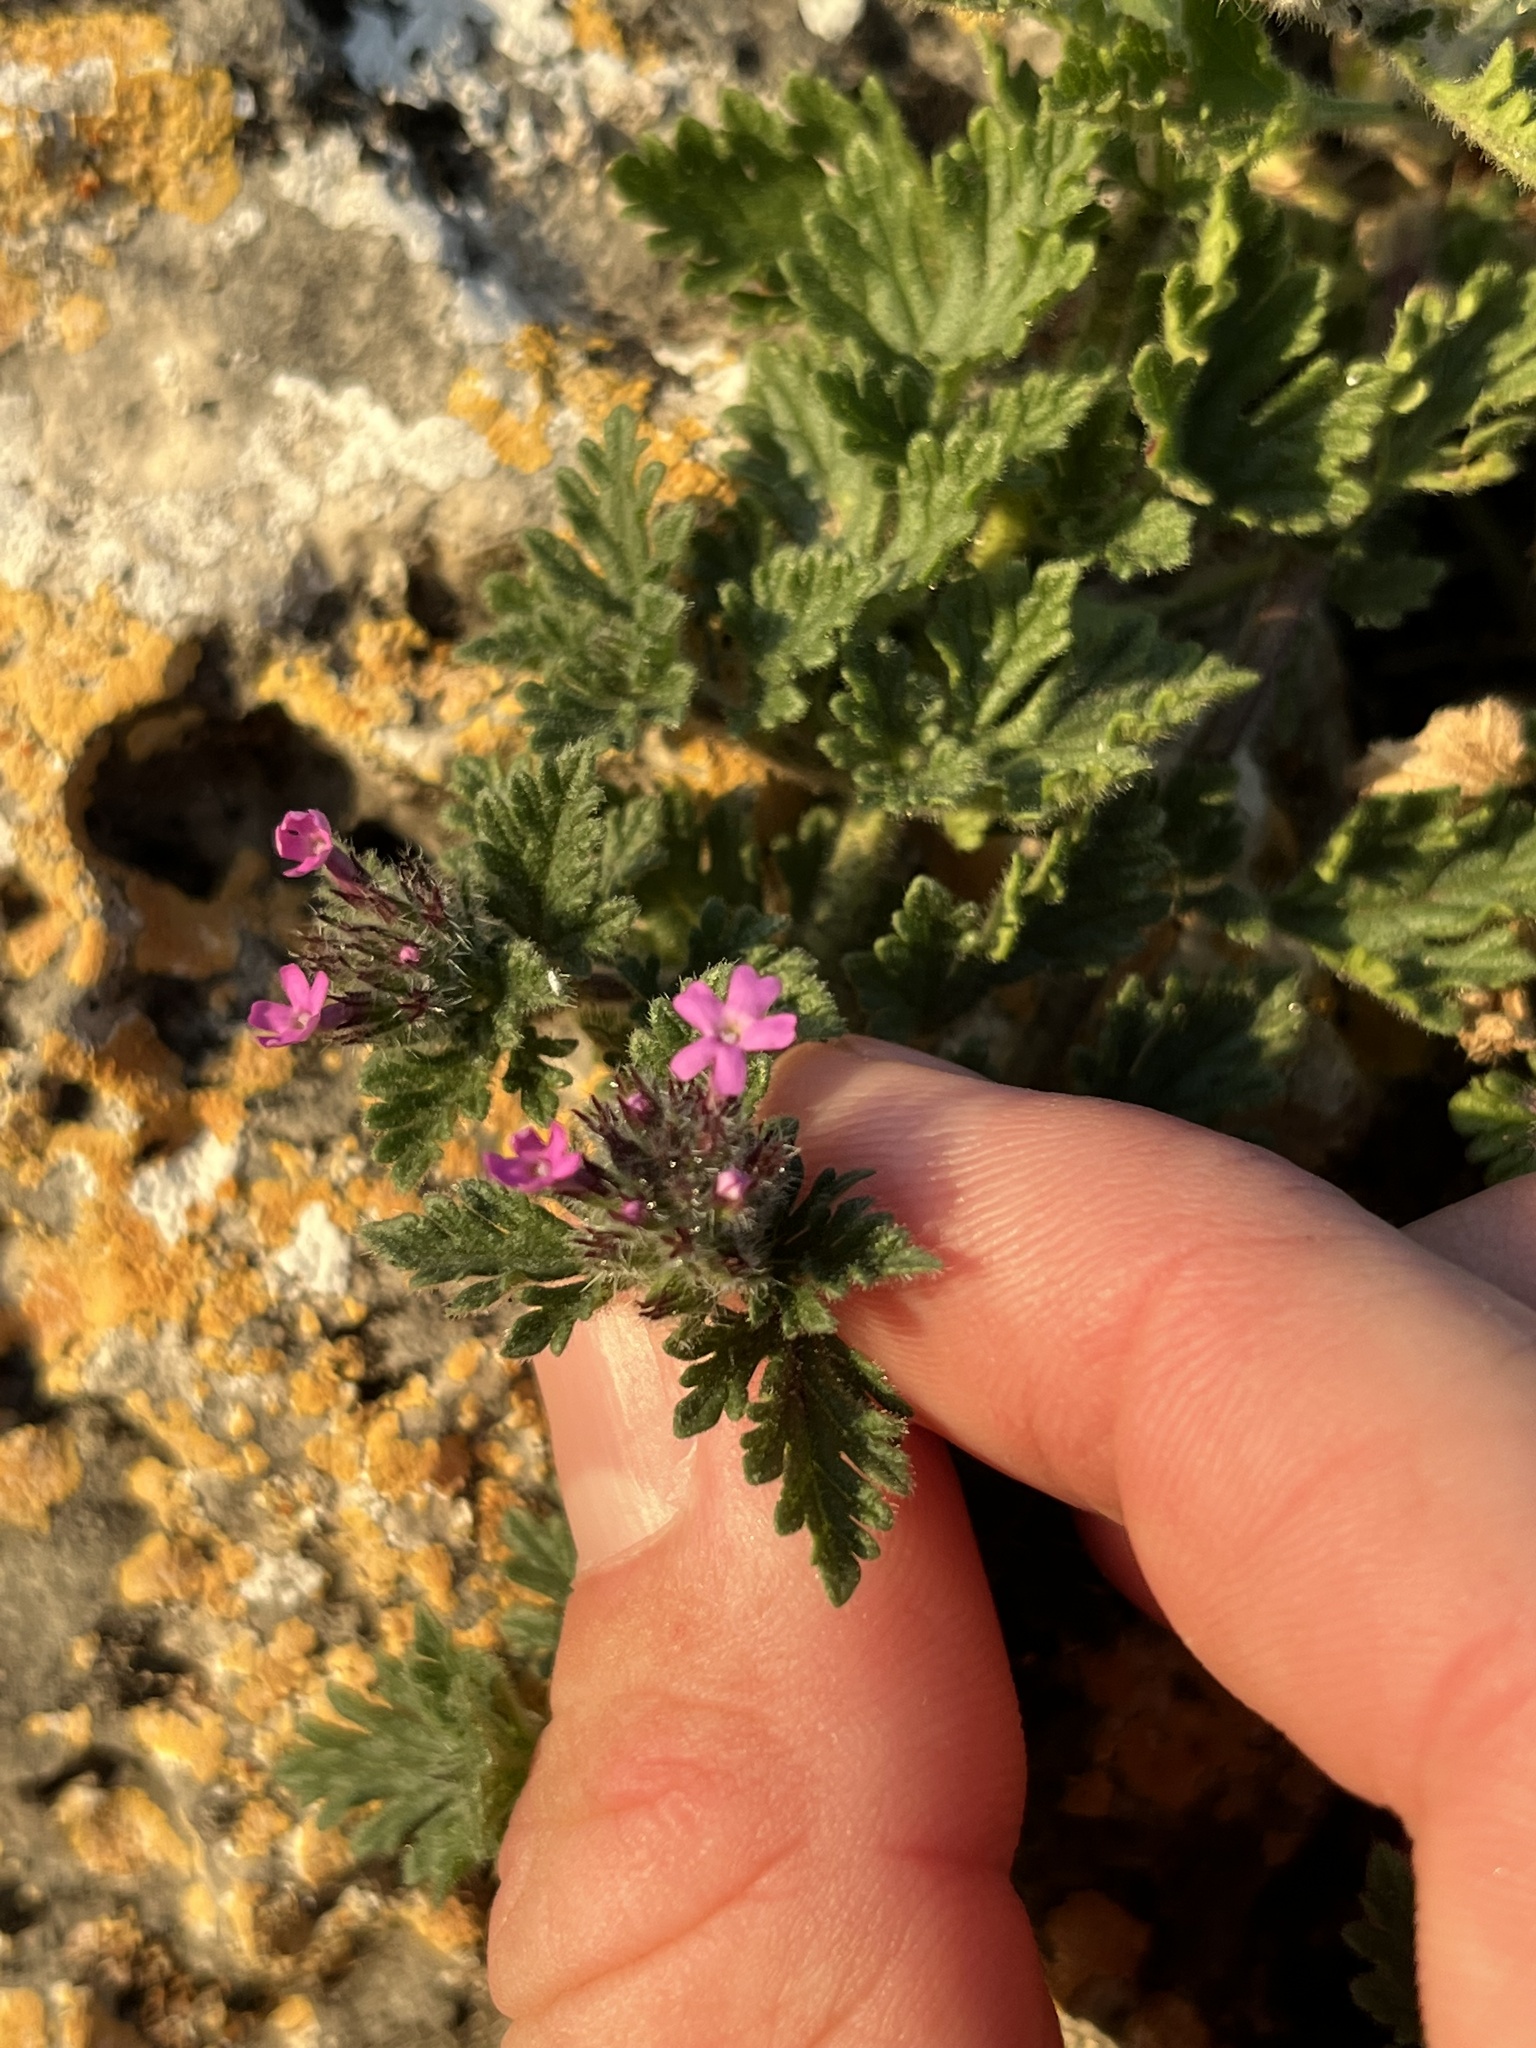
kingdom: Plantae
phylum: Tracheophyta
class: Magnoliopsida
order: Lamiales
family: Verbenaceae
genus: Verbena
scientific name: Verbena pumila
